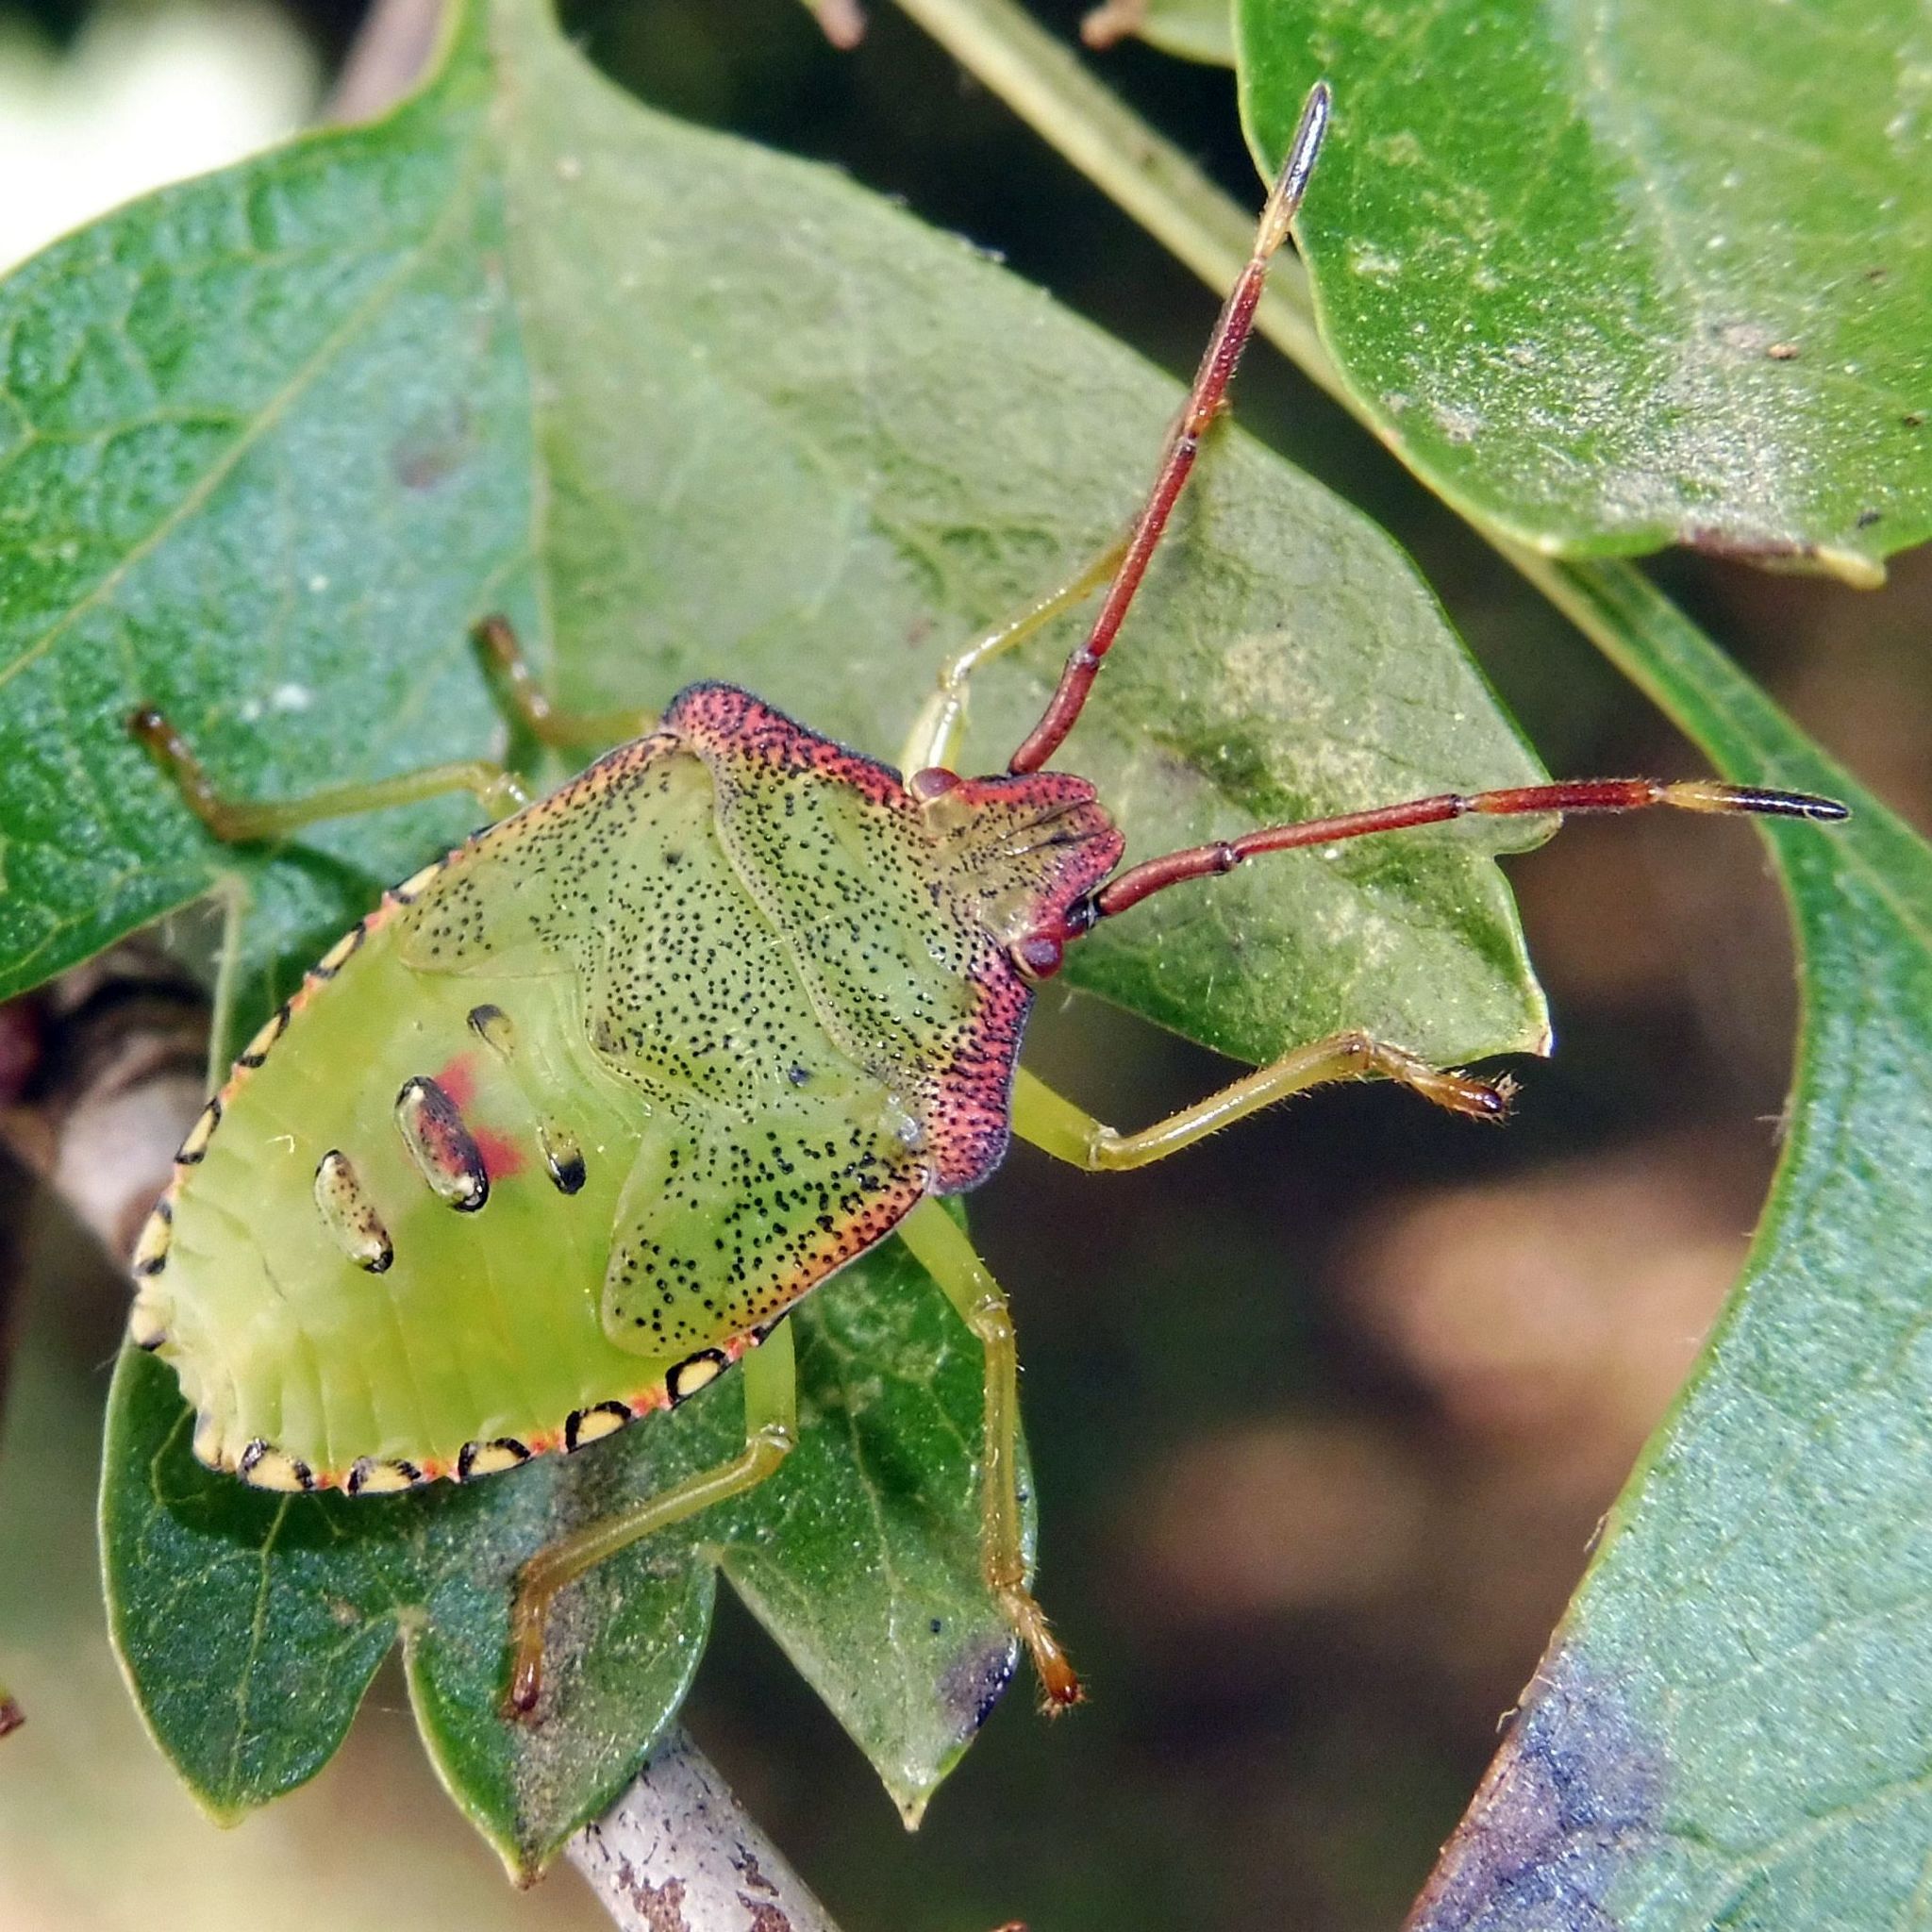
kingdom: Animalia
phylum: Arthropoda
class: Insecta
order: Hemiptera
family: Acanthosomatidae
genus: Acanthosoma
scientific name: Acanthosoma haemorrhoidale
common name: Hawthorn shieldbug
